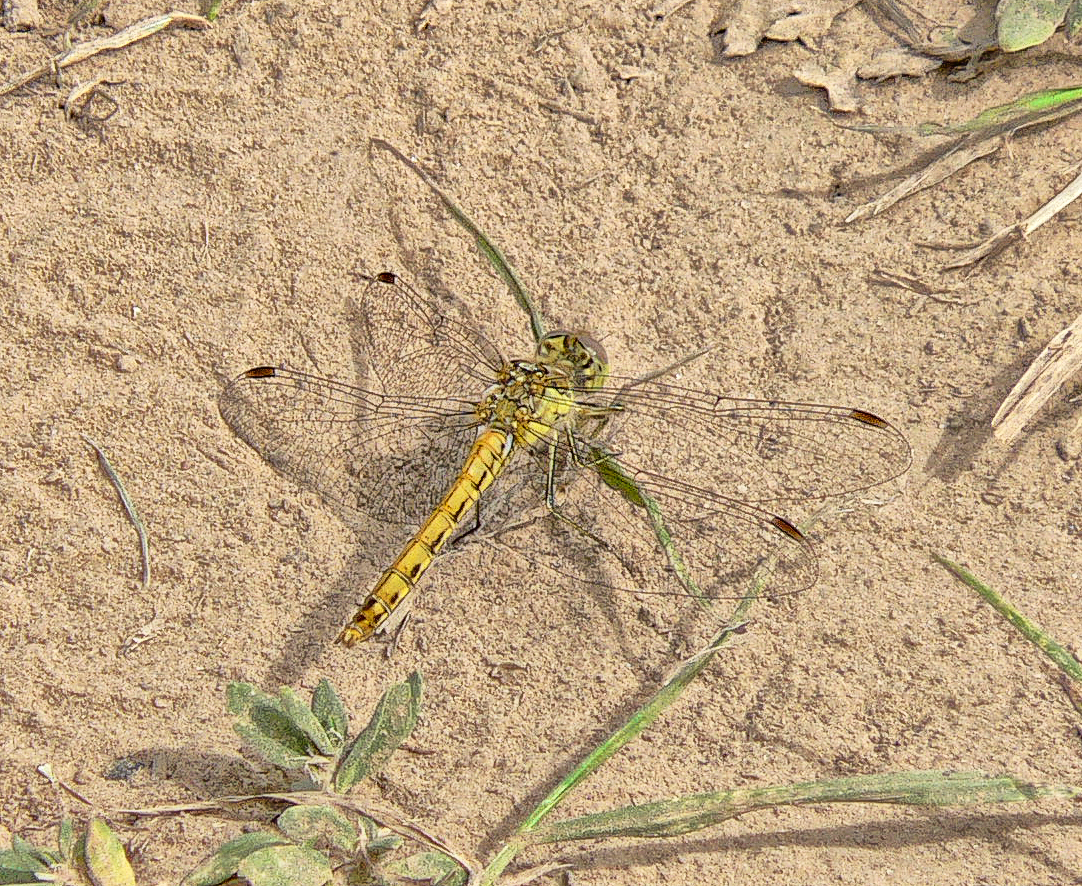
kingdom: Animalia
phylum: Arthropoda
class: Insecta
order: Odonata
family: Libellulidae
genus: Sympetrum
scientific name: Sympetrum vulgatum
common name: Vagrant darter
